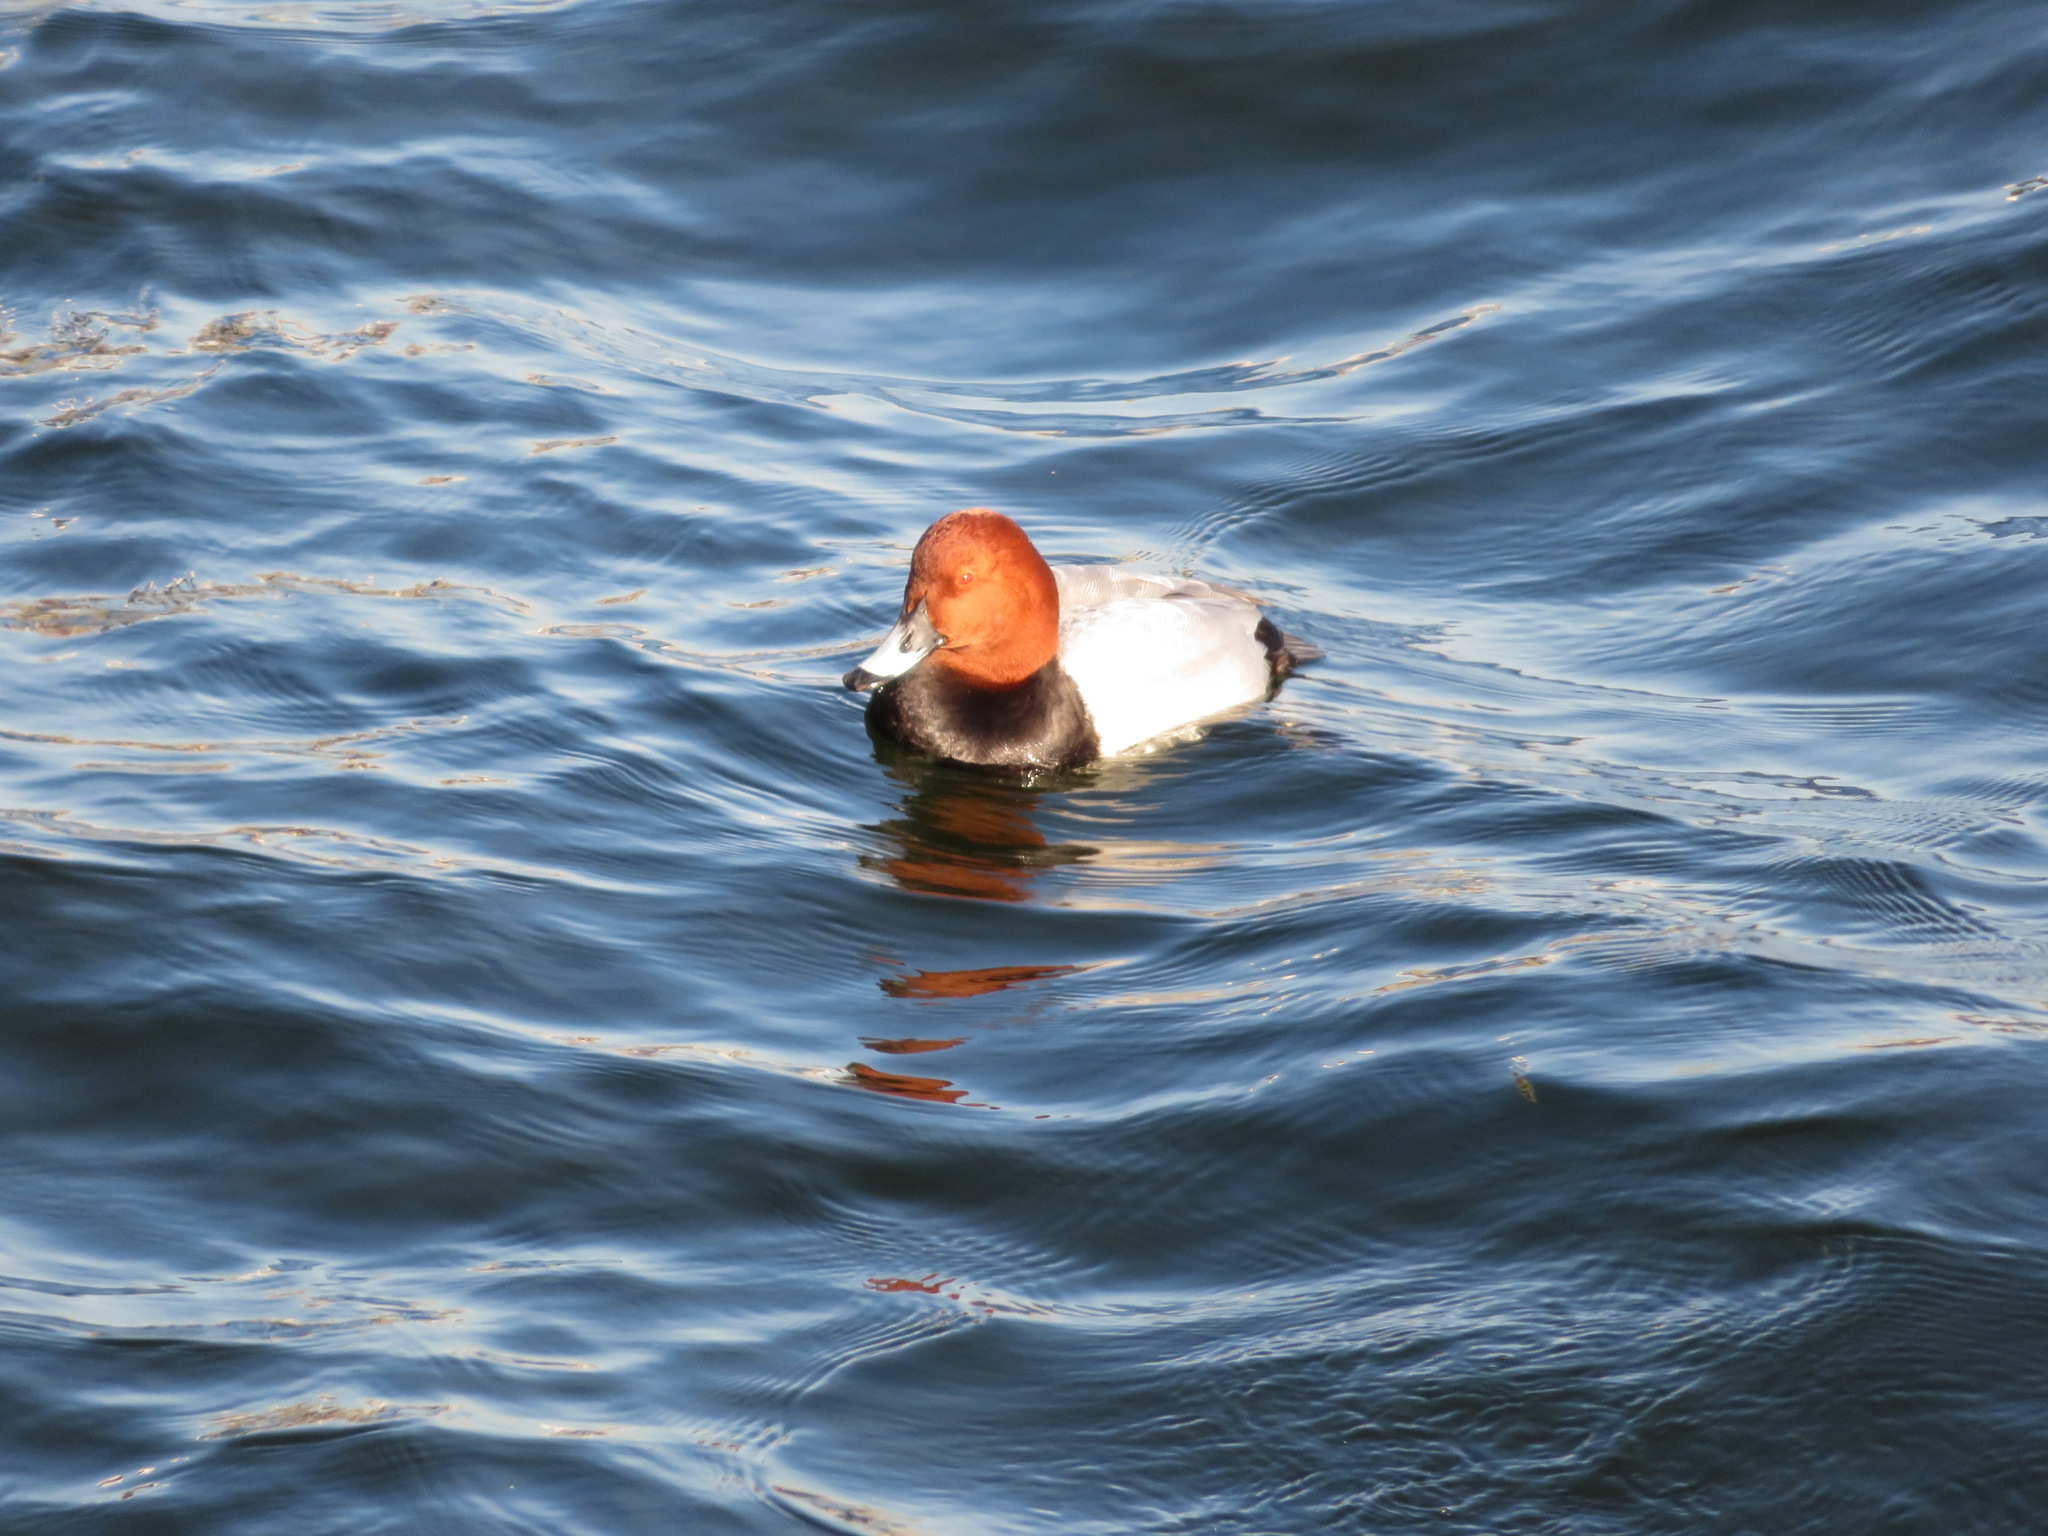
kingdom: Animalia
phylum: Chordata
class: Aves
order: Anseriformes
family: Anatidae
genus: Aythya
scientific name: Aythya ferina
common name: Common pochard
